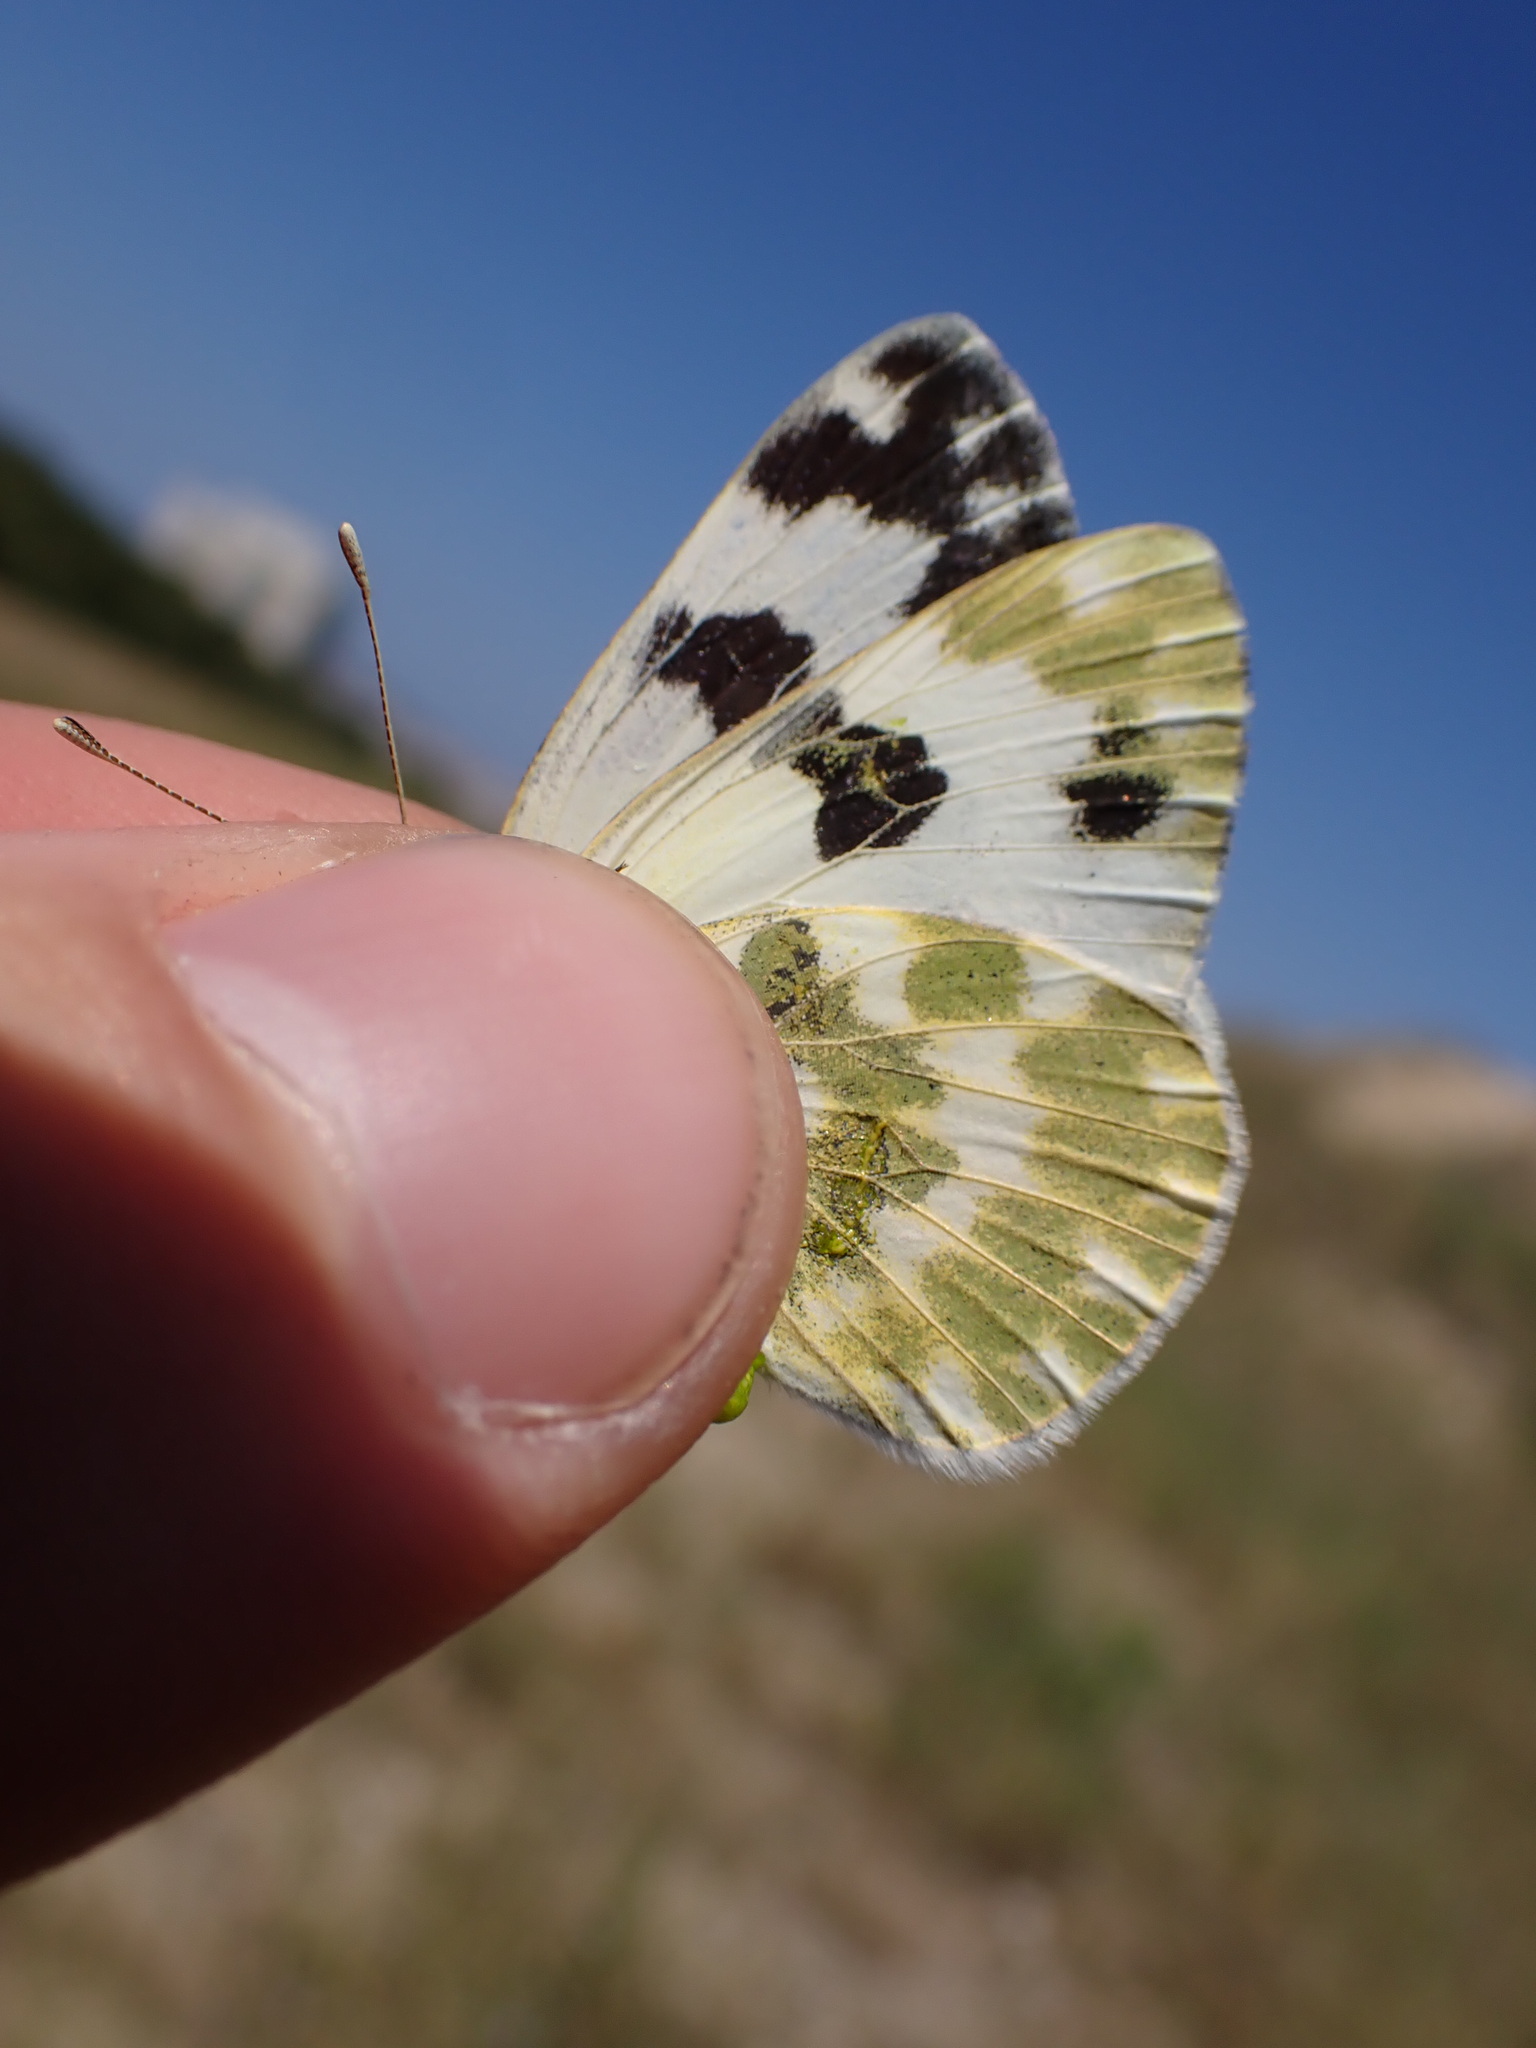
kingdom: Animalia
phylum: Arthropoda
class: Insecta
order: Lepidoptera
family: Pieridae
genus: Pontia
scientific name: Pontia daplidice
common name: Bath white
